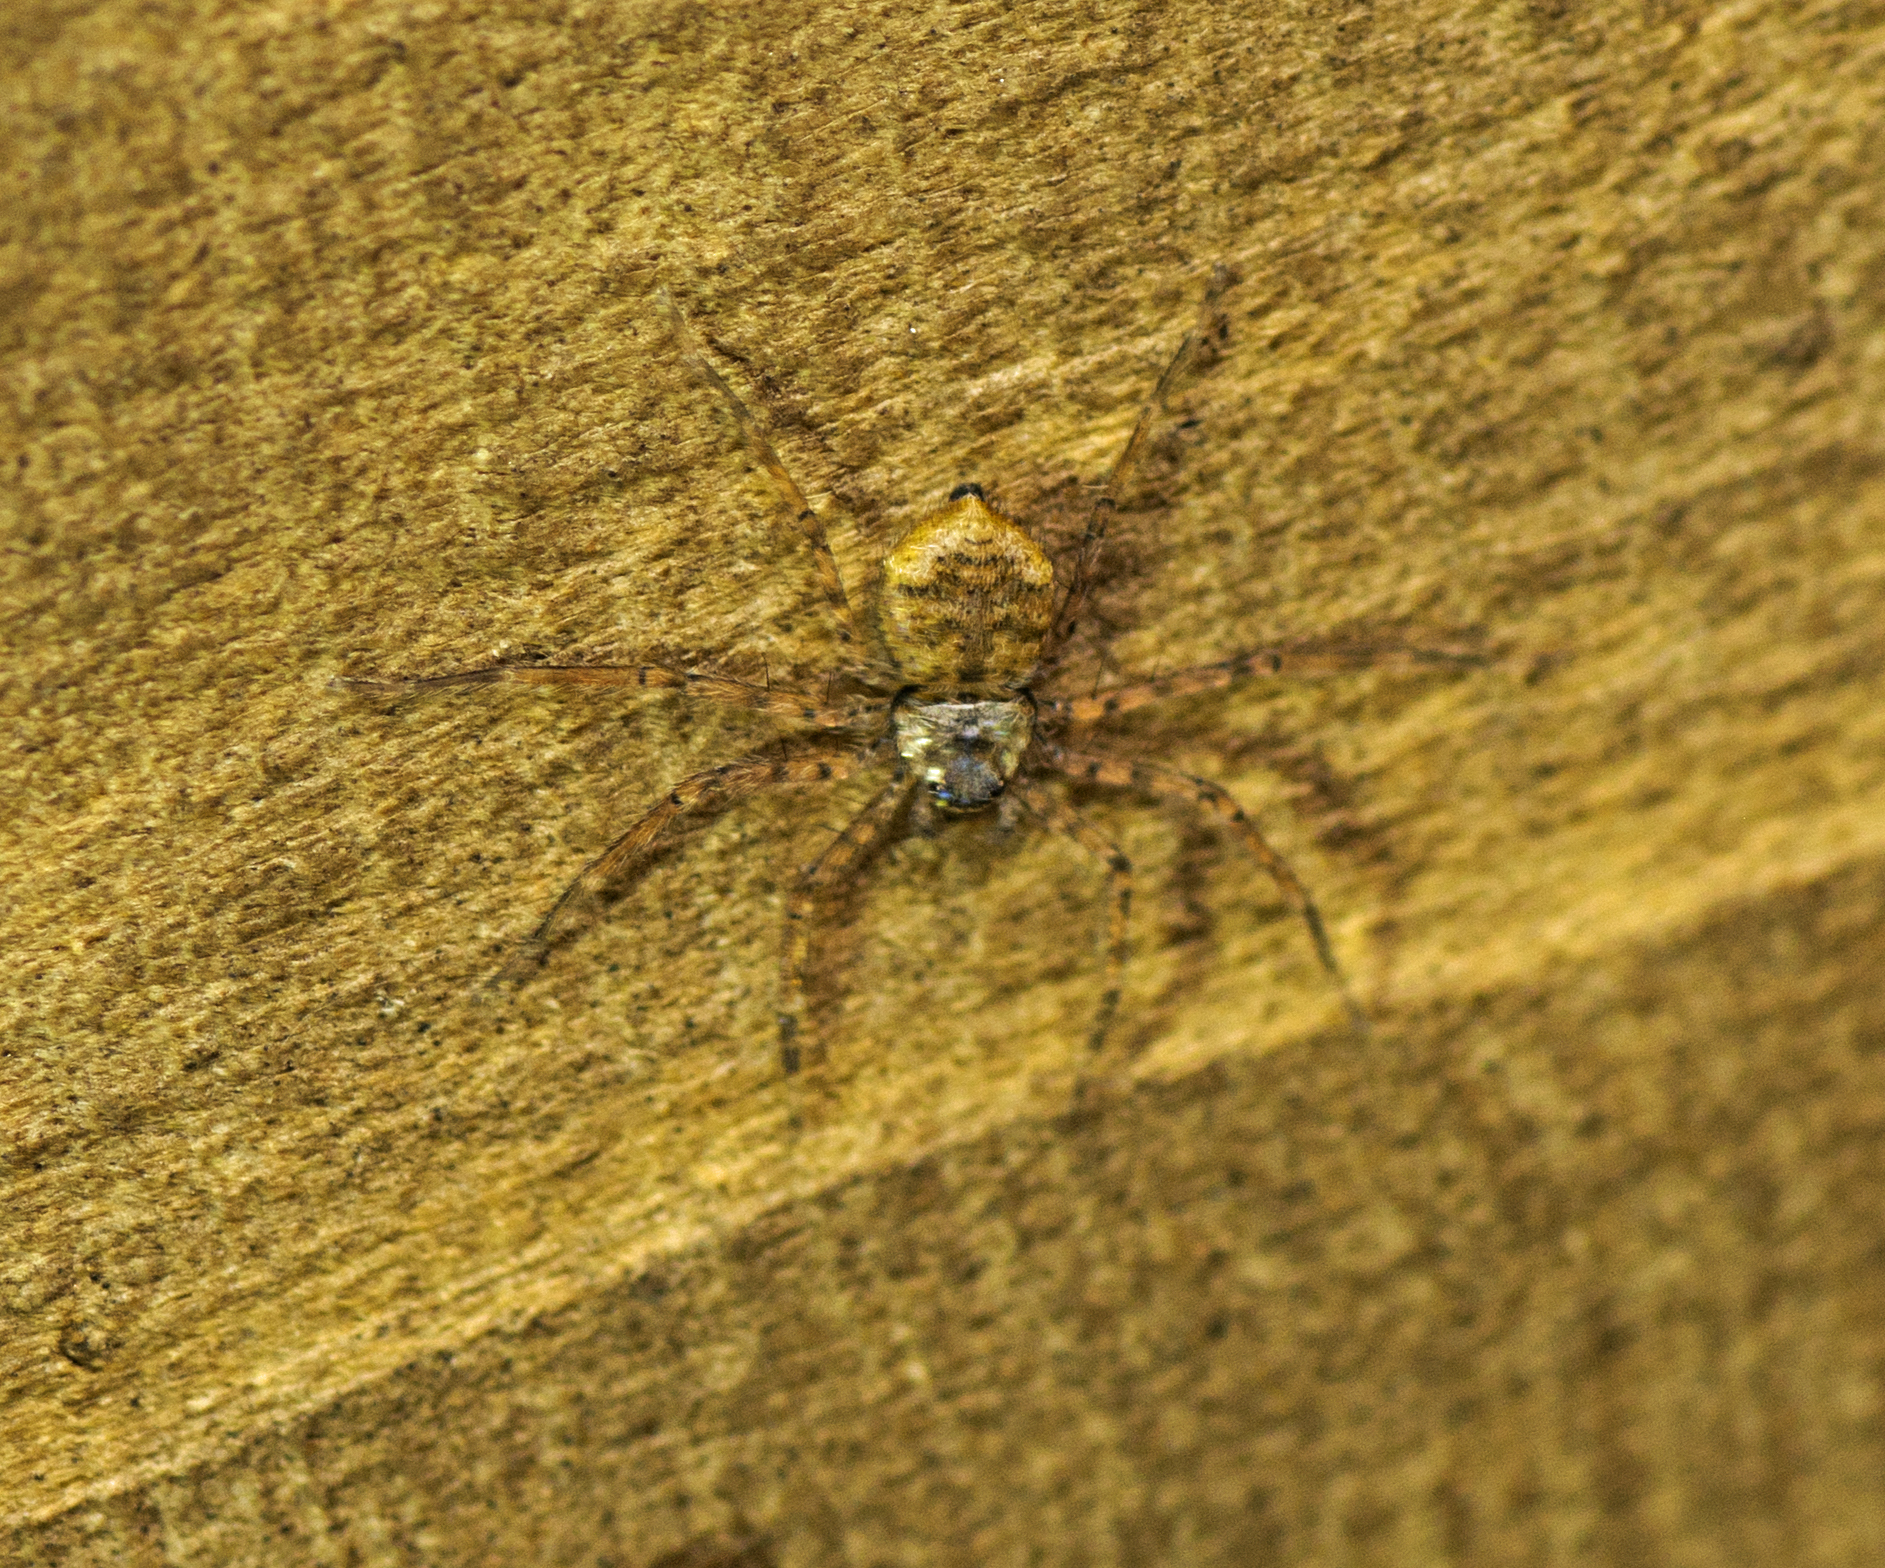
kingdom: Animalia
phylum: Arthropoda
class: Arachnida
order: Araneae
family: Selenopidae
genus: Karaops
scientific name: Karaops raveni
